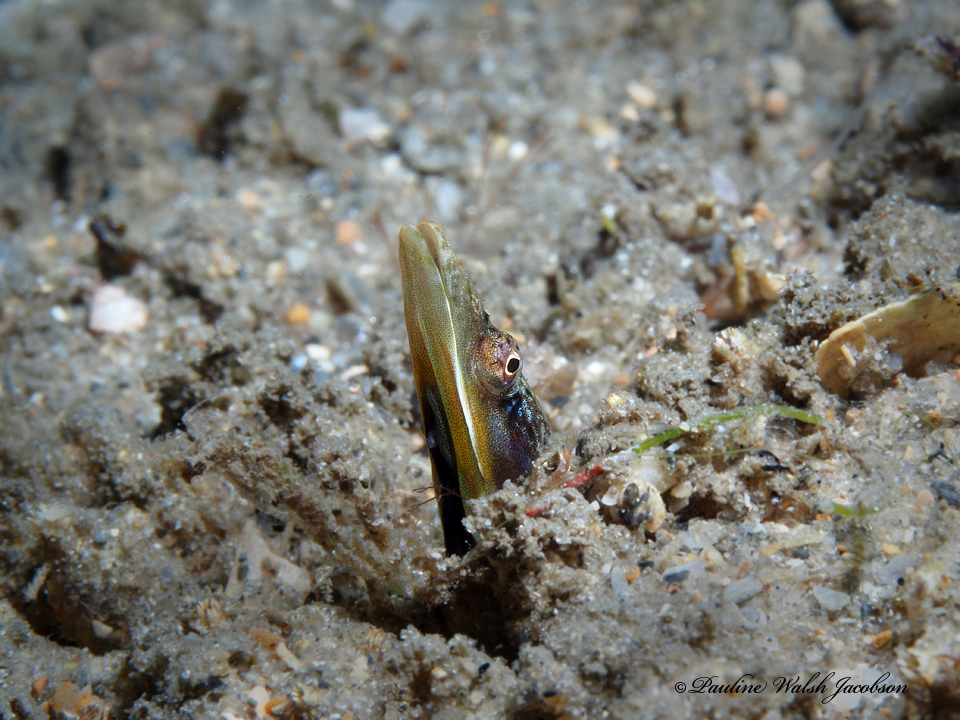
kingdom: Animalia
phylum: Chordata
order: Perciformes
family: Chaenopsidae
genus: Chaenopsis
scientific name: Chaenopsis ocellata
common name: Bluethroat pikeblenny
